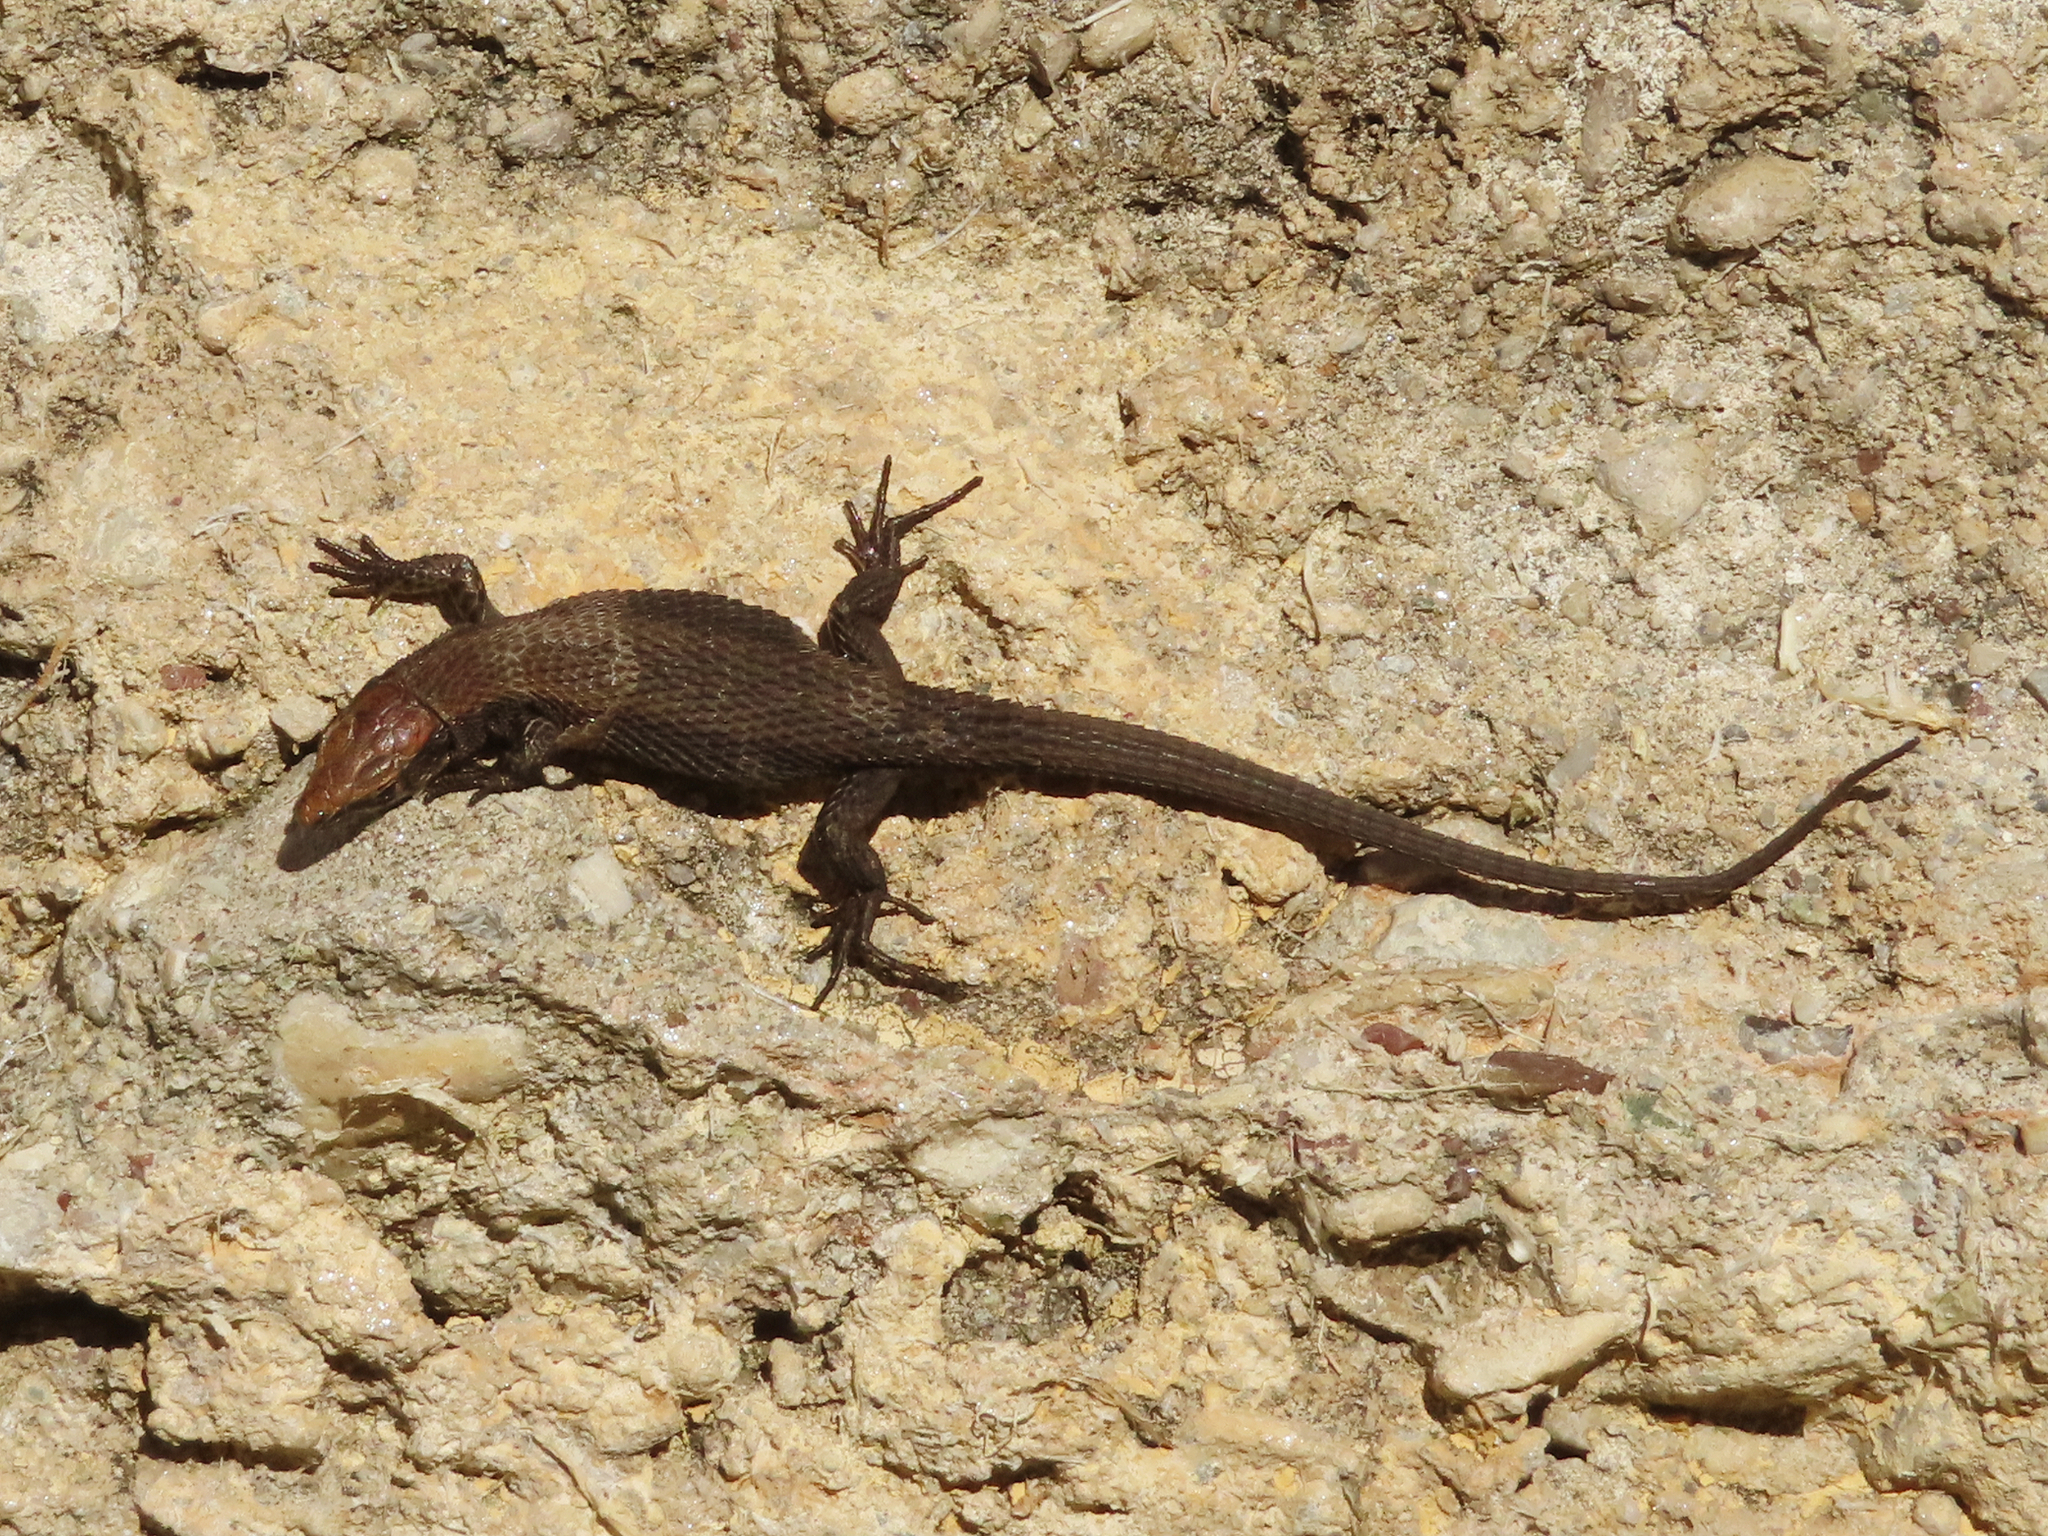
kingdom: Animalia
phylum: Chordata
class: Squamata
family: Lacertidae
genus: Algyroides
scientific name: Algyroides moreoticus
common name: Greek algyroides
